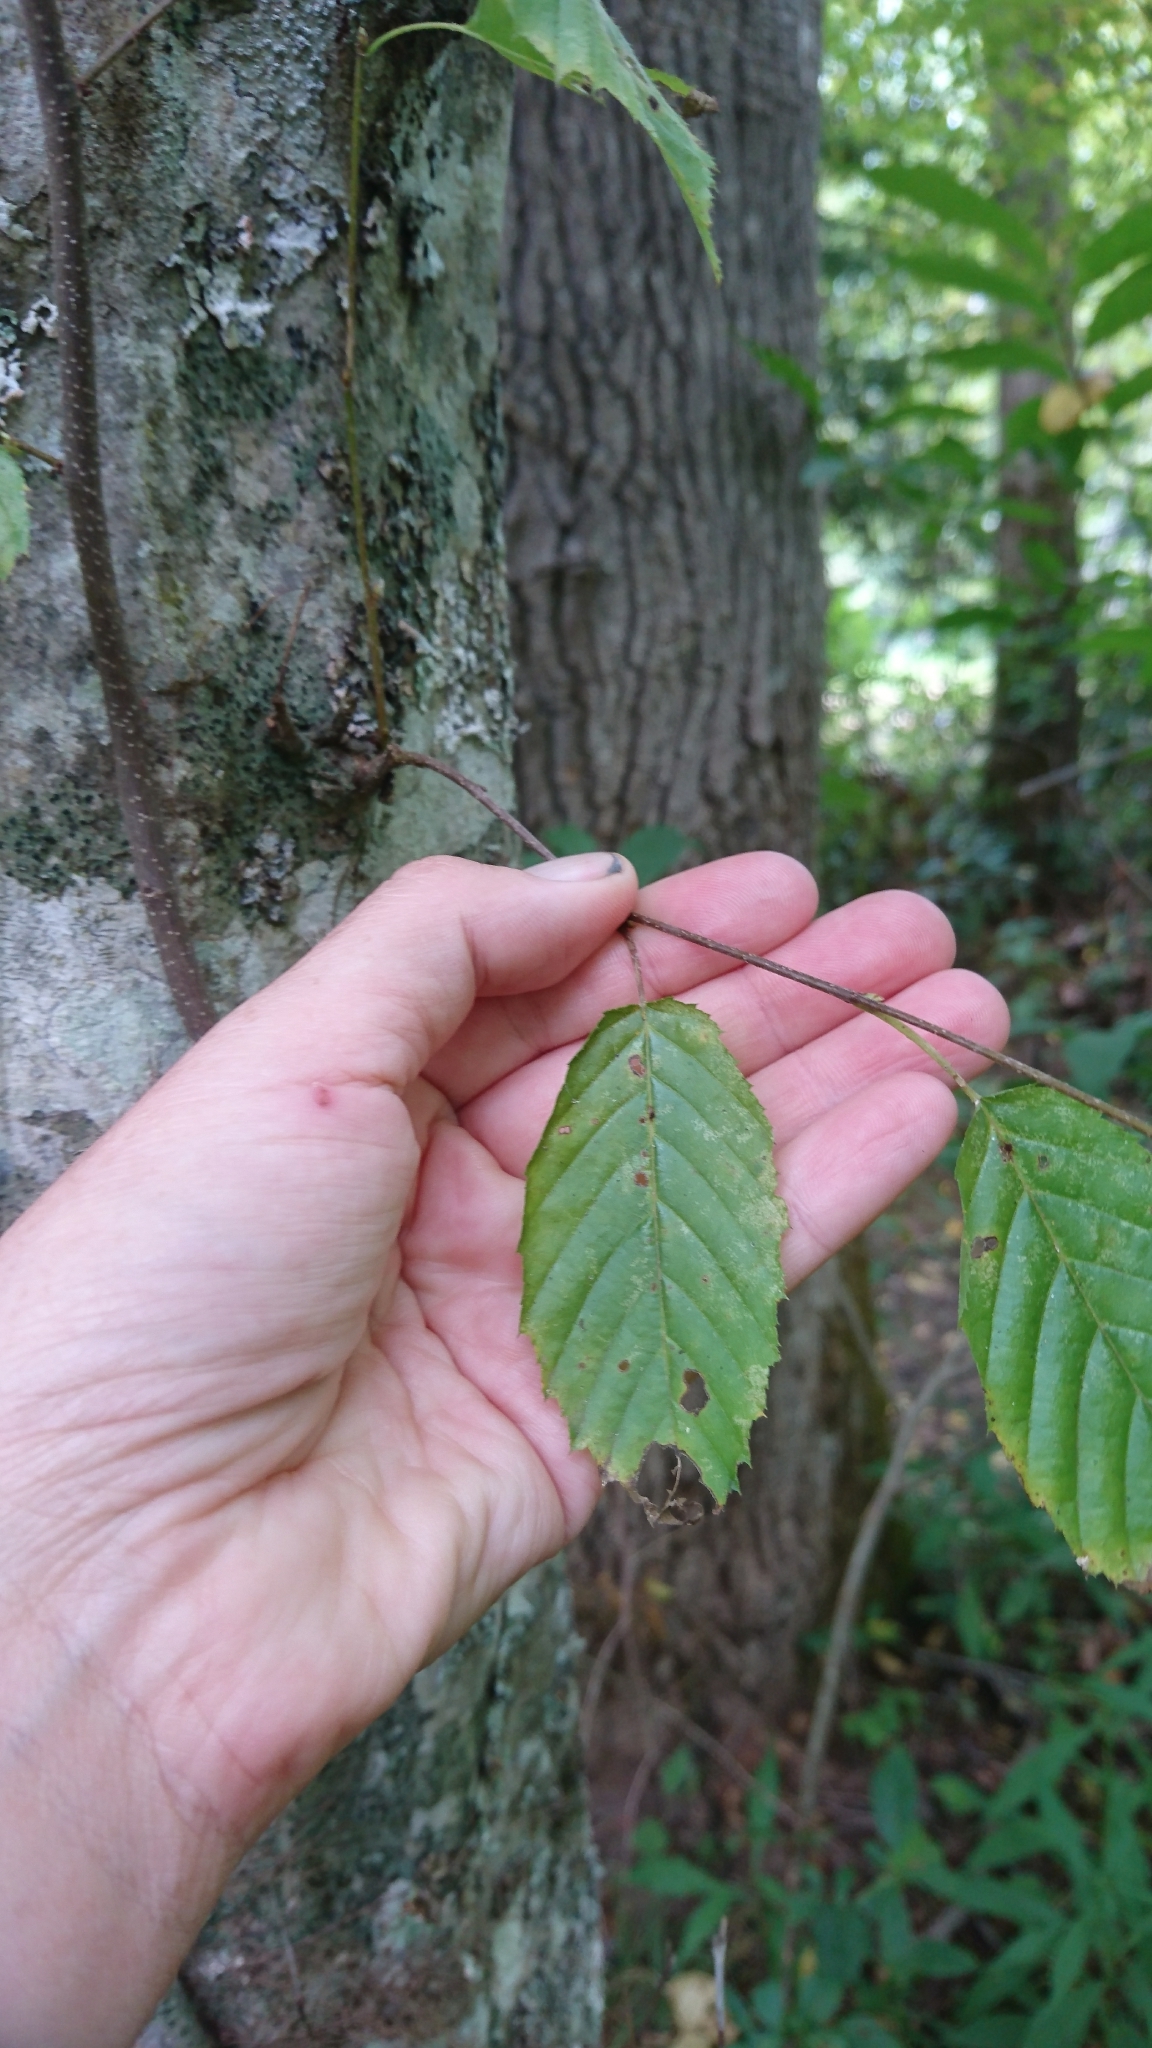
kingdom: Plantae
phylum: Tracheophyta
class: Magnoliopsida
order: Fagales
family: Betulaceae
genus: Carpinus
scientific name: Carpinus caroliniana
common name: American hornbeam
